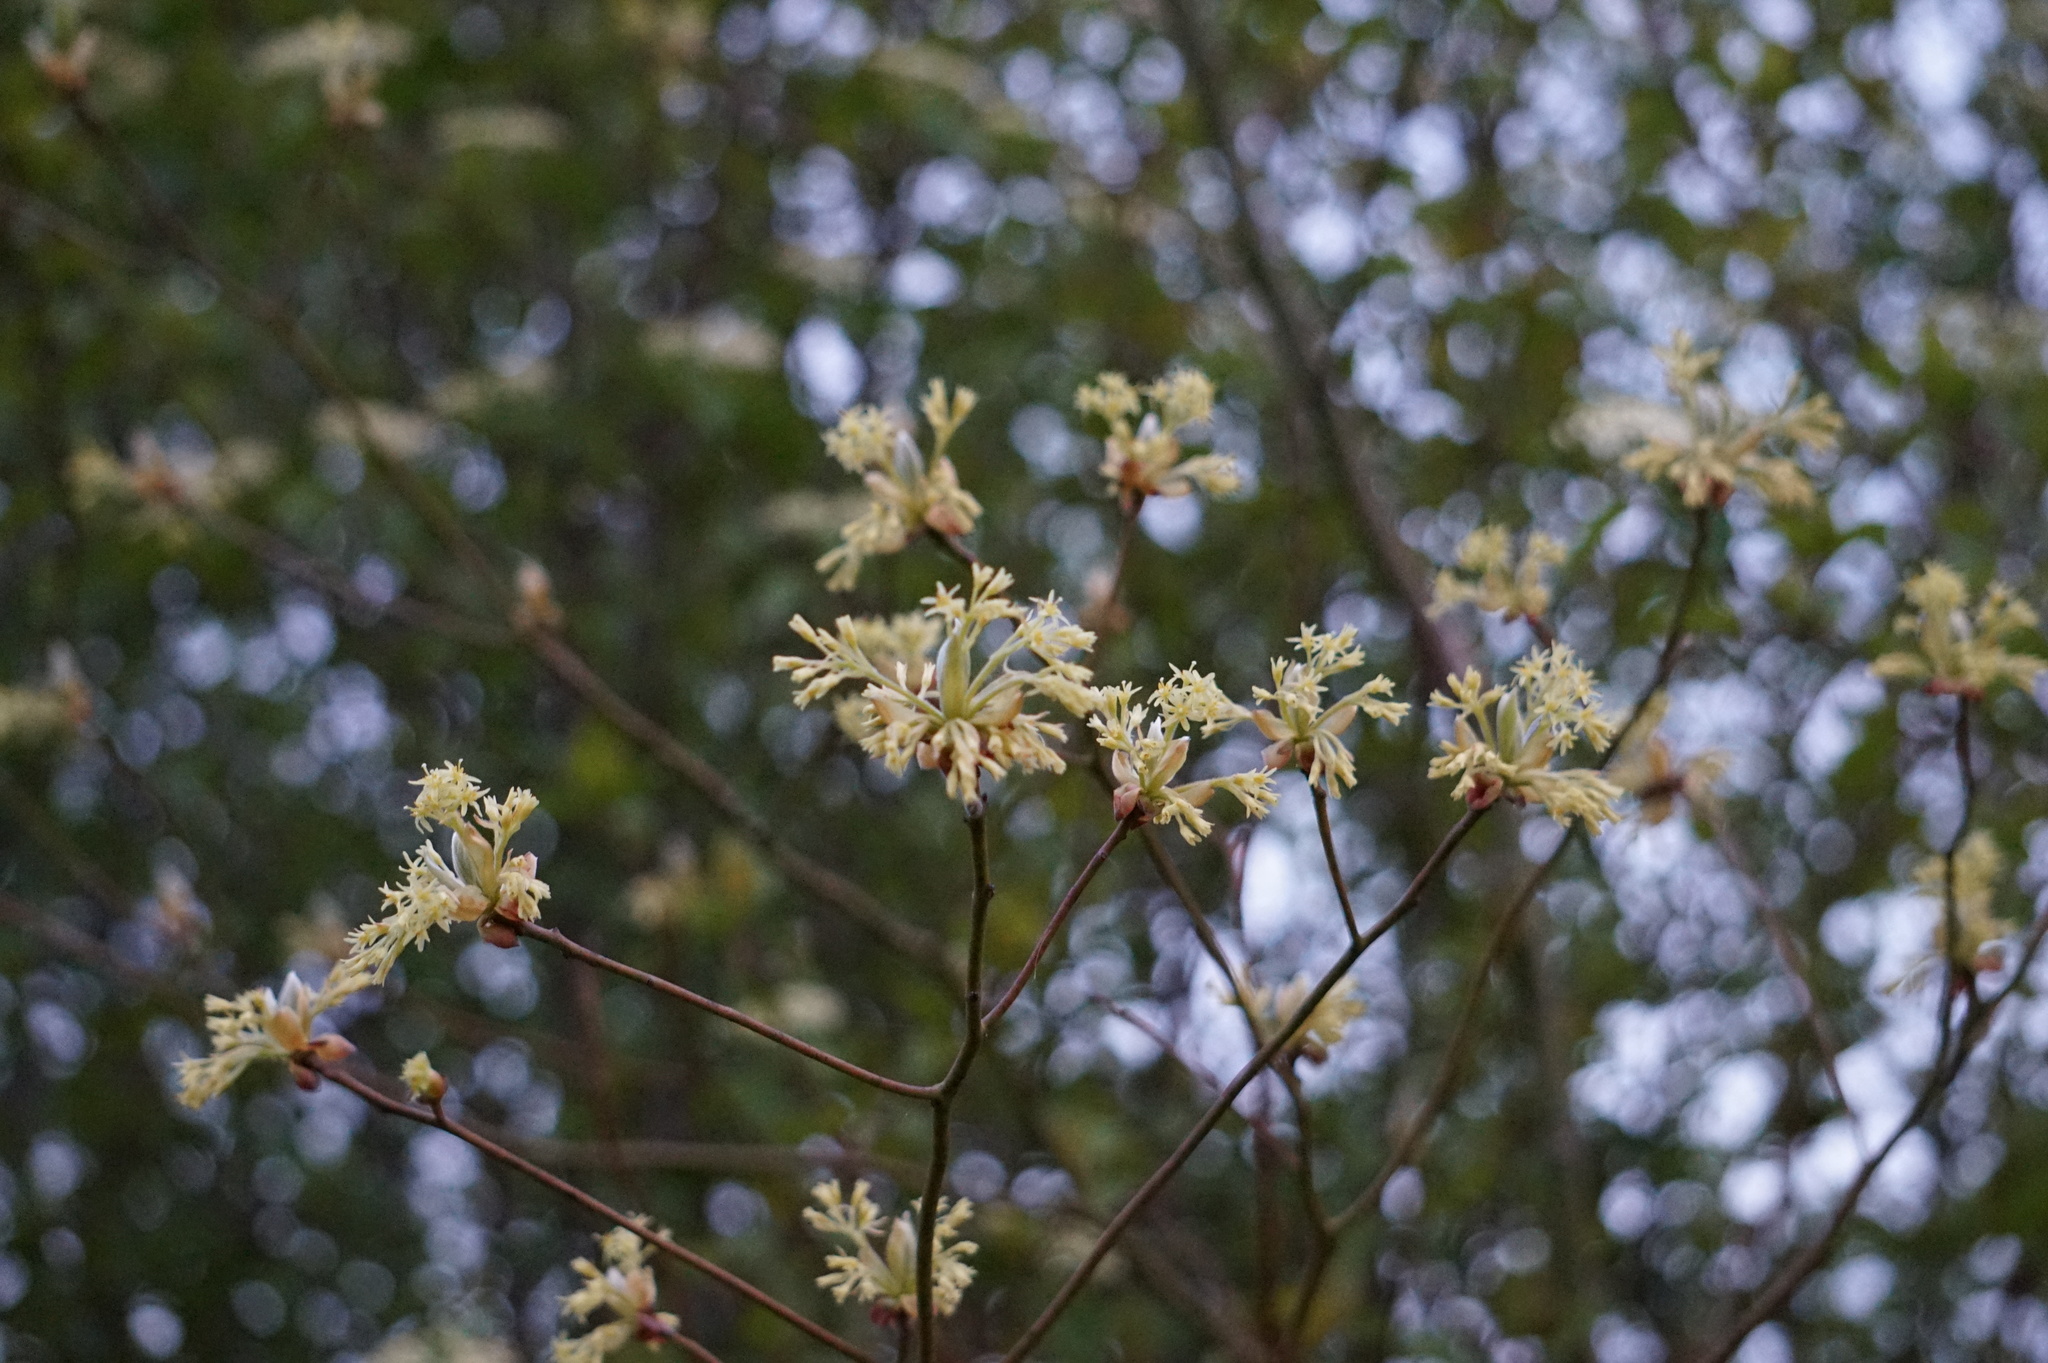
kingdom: Plantae
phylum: Tracheophyta
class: Magnoliopsida
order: Laurales
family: Lauraceae
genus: Sassafras
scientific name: Sassafras albidum
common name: Sassafras
